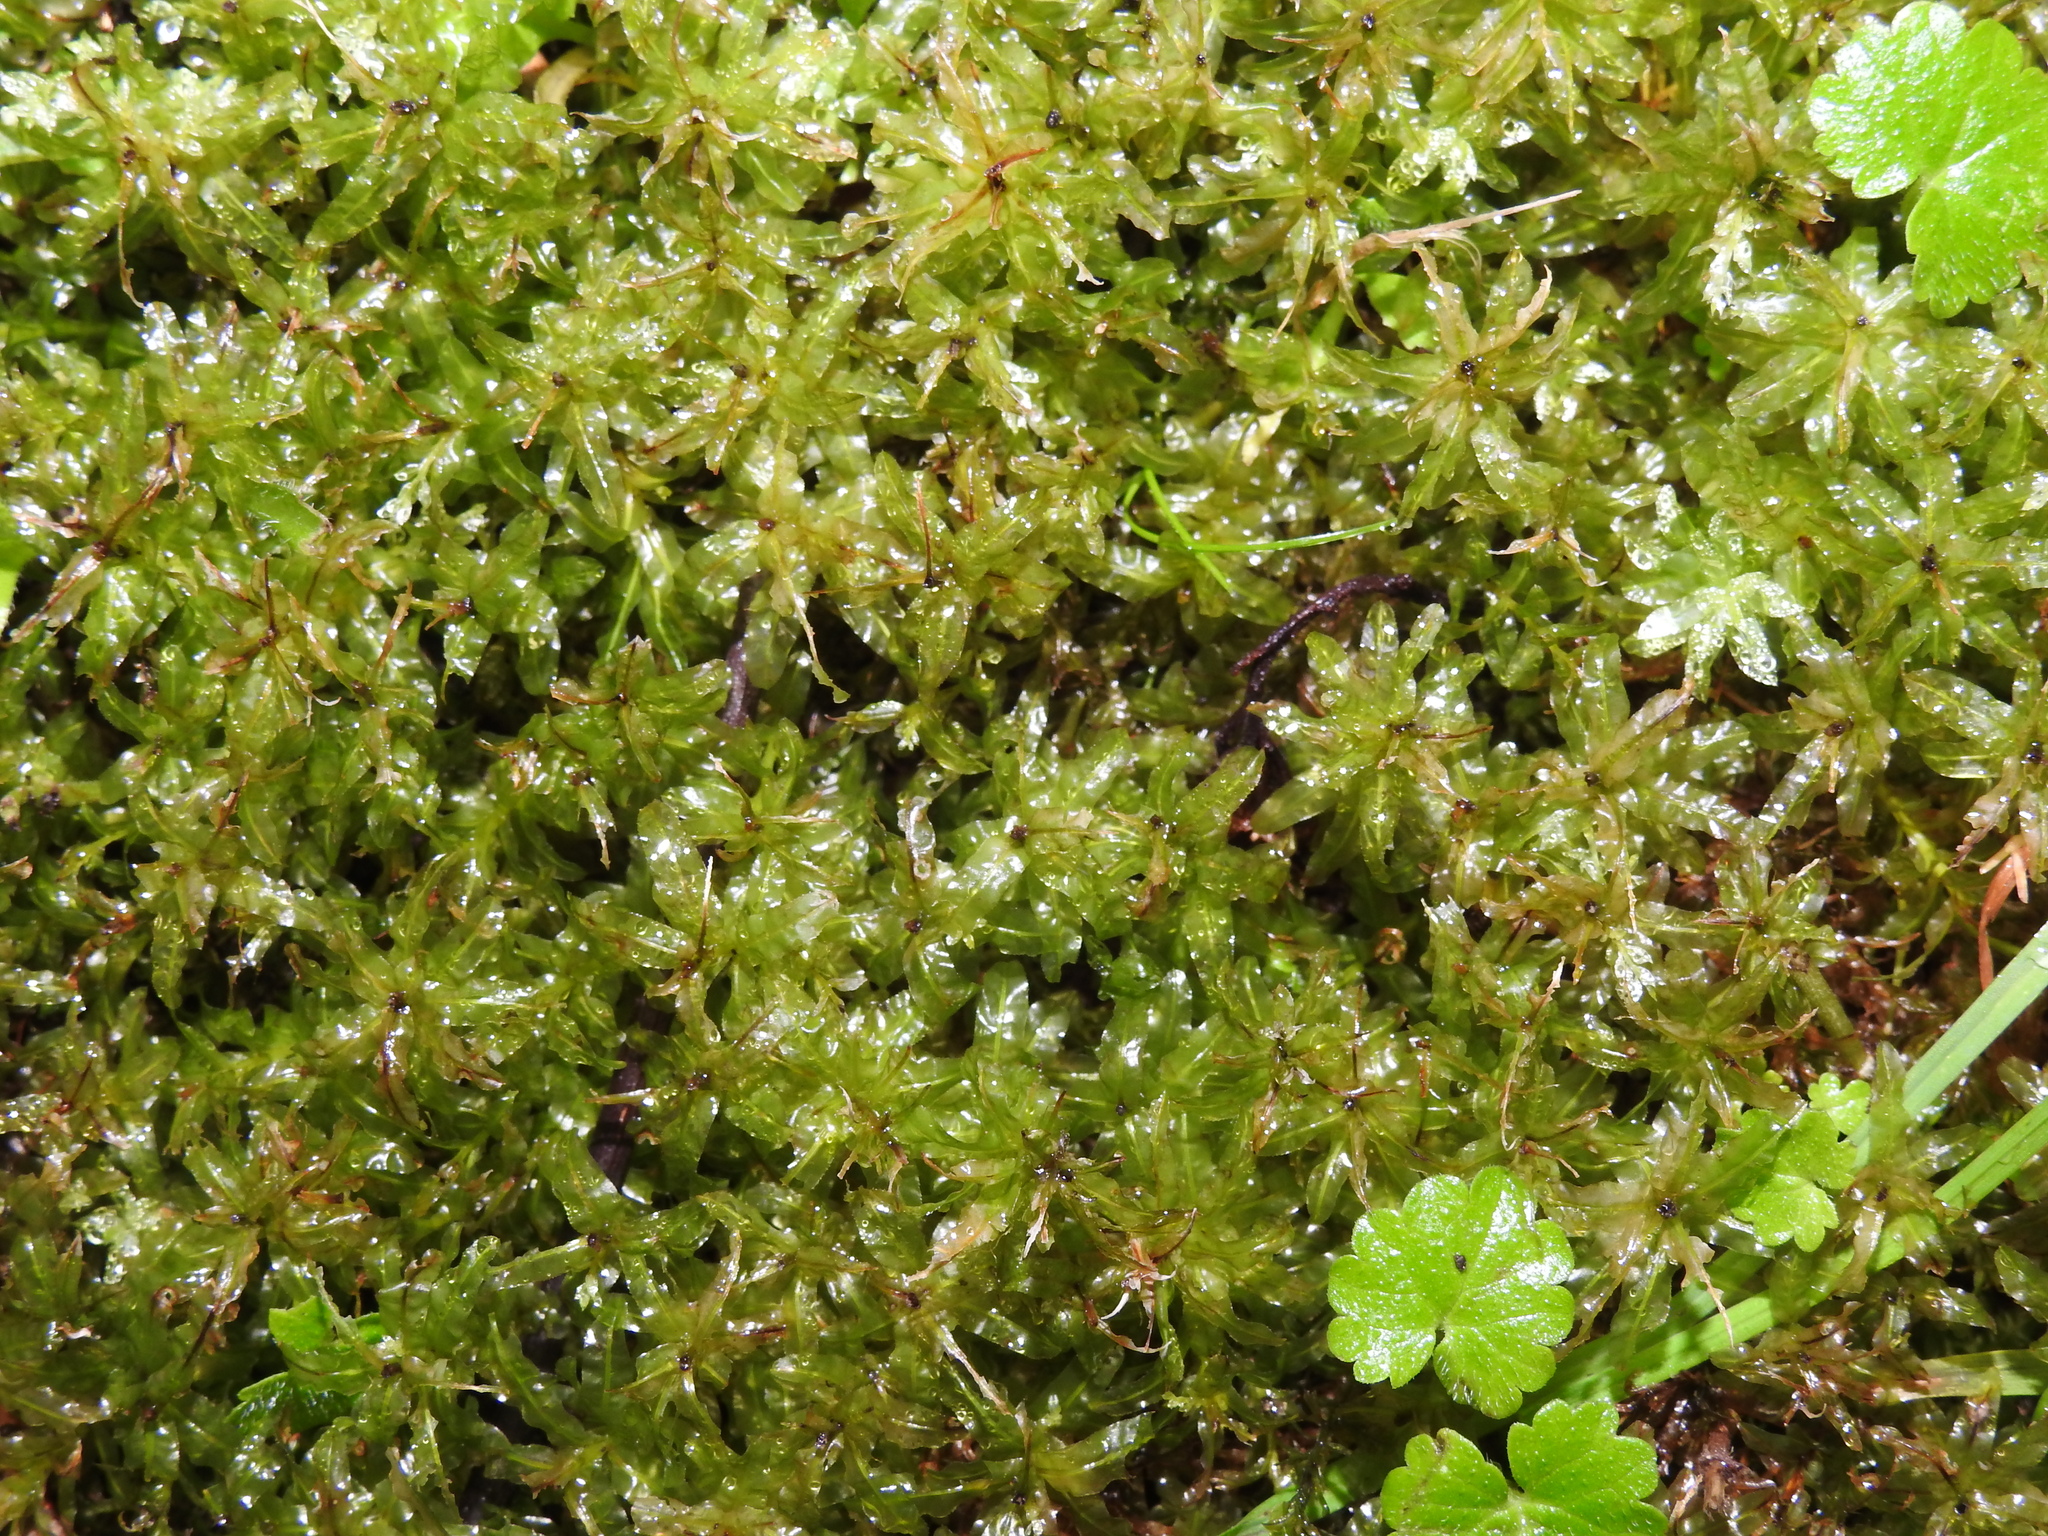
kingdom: Plantae
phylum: Bryophyta
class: Bryopsida
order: Bryales
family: Mniaceae
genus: Plagiomnium
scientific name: Plagiomnium undulatum
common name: Hart's-tongue thyme-moss
